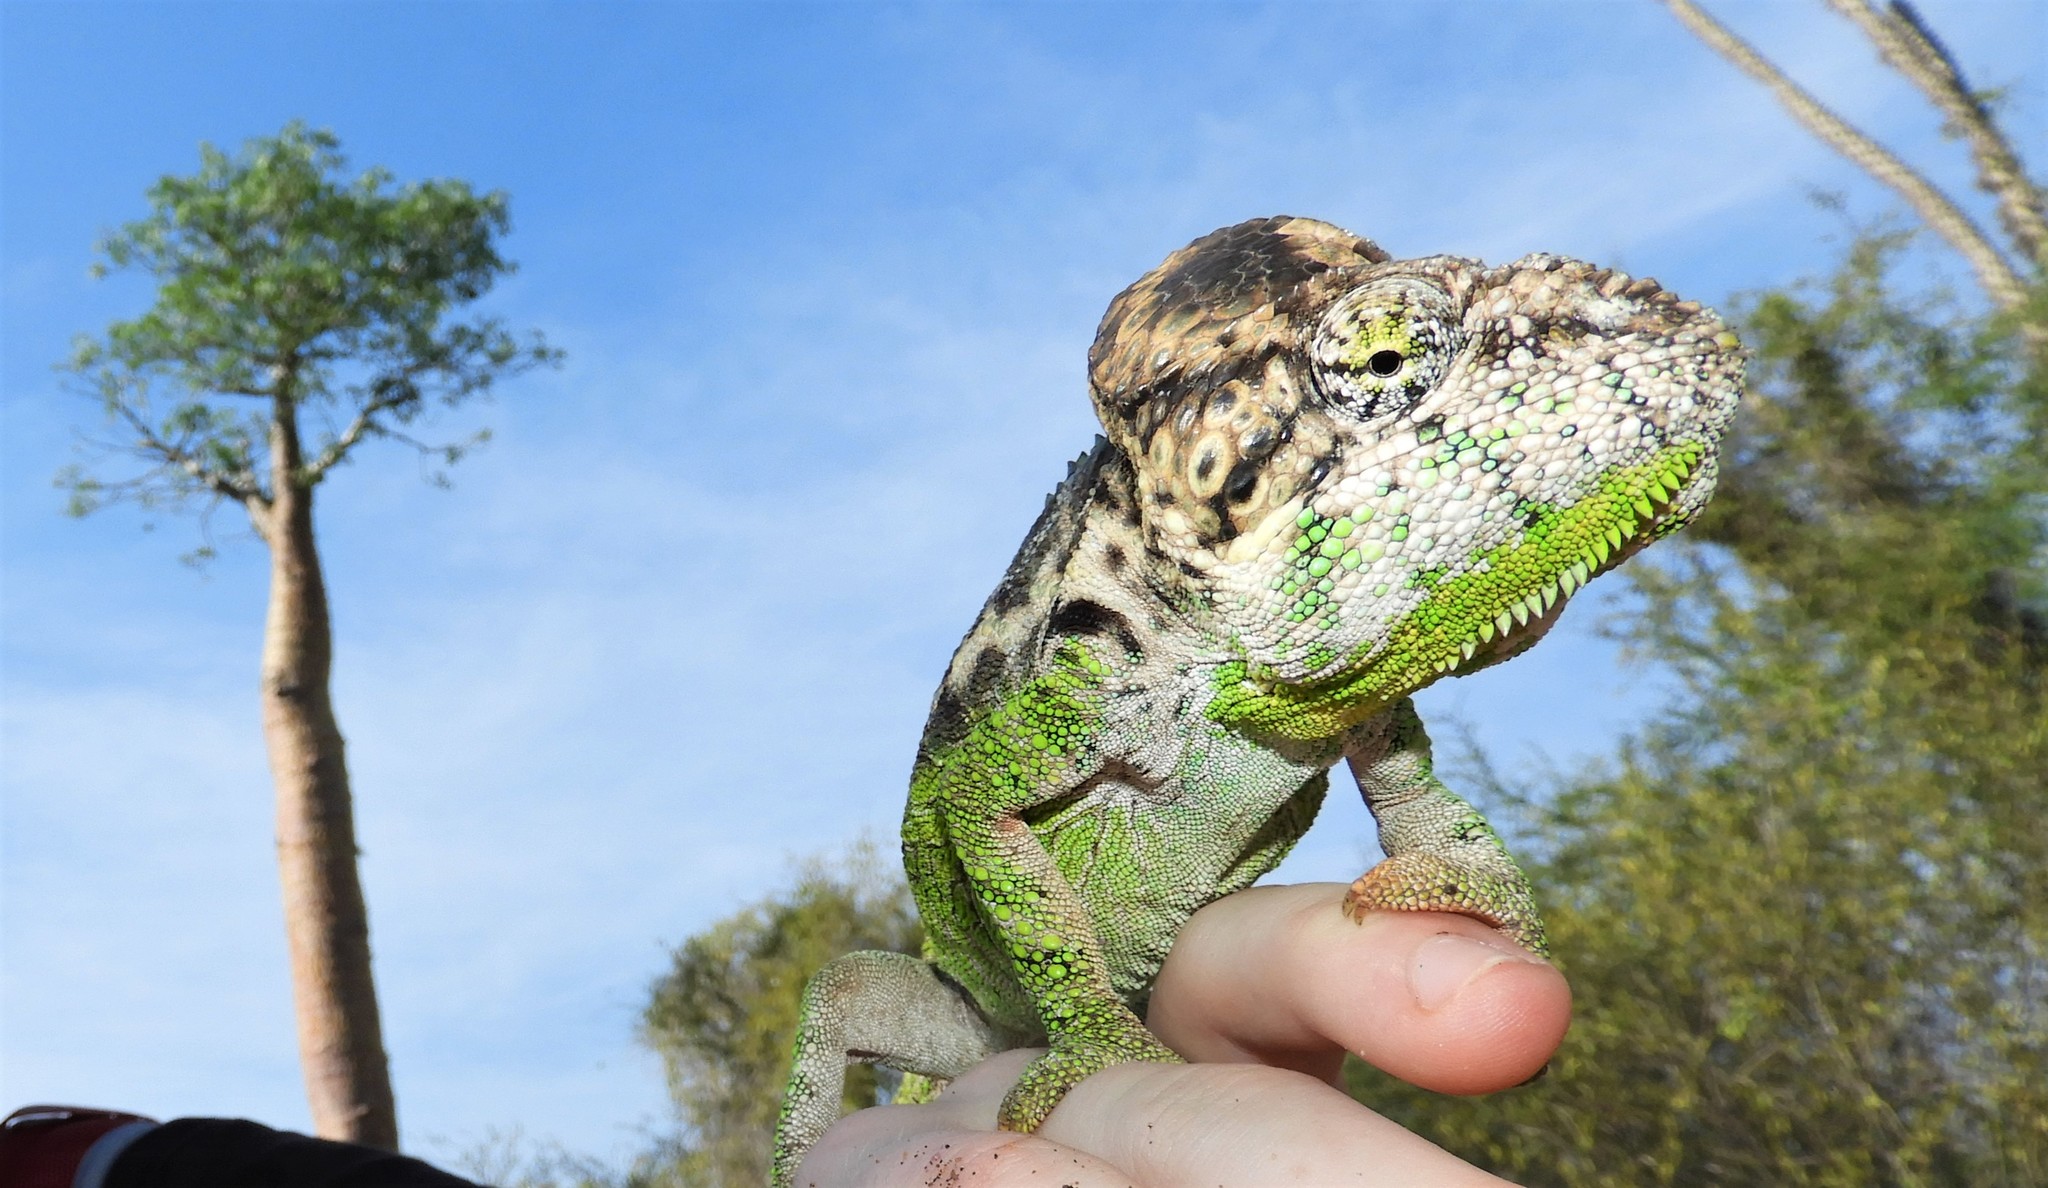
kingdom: Animalia
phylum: Chordata
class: Squamata
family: Chamaeleonidae
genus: Furcifer
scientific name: Furcifer verrucosus
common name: Warty chameleon
